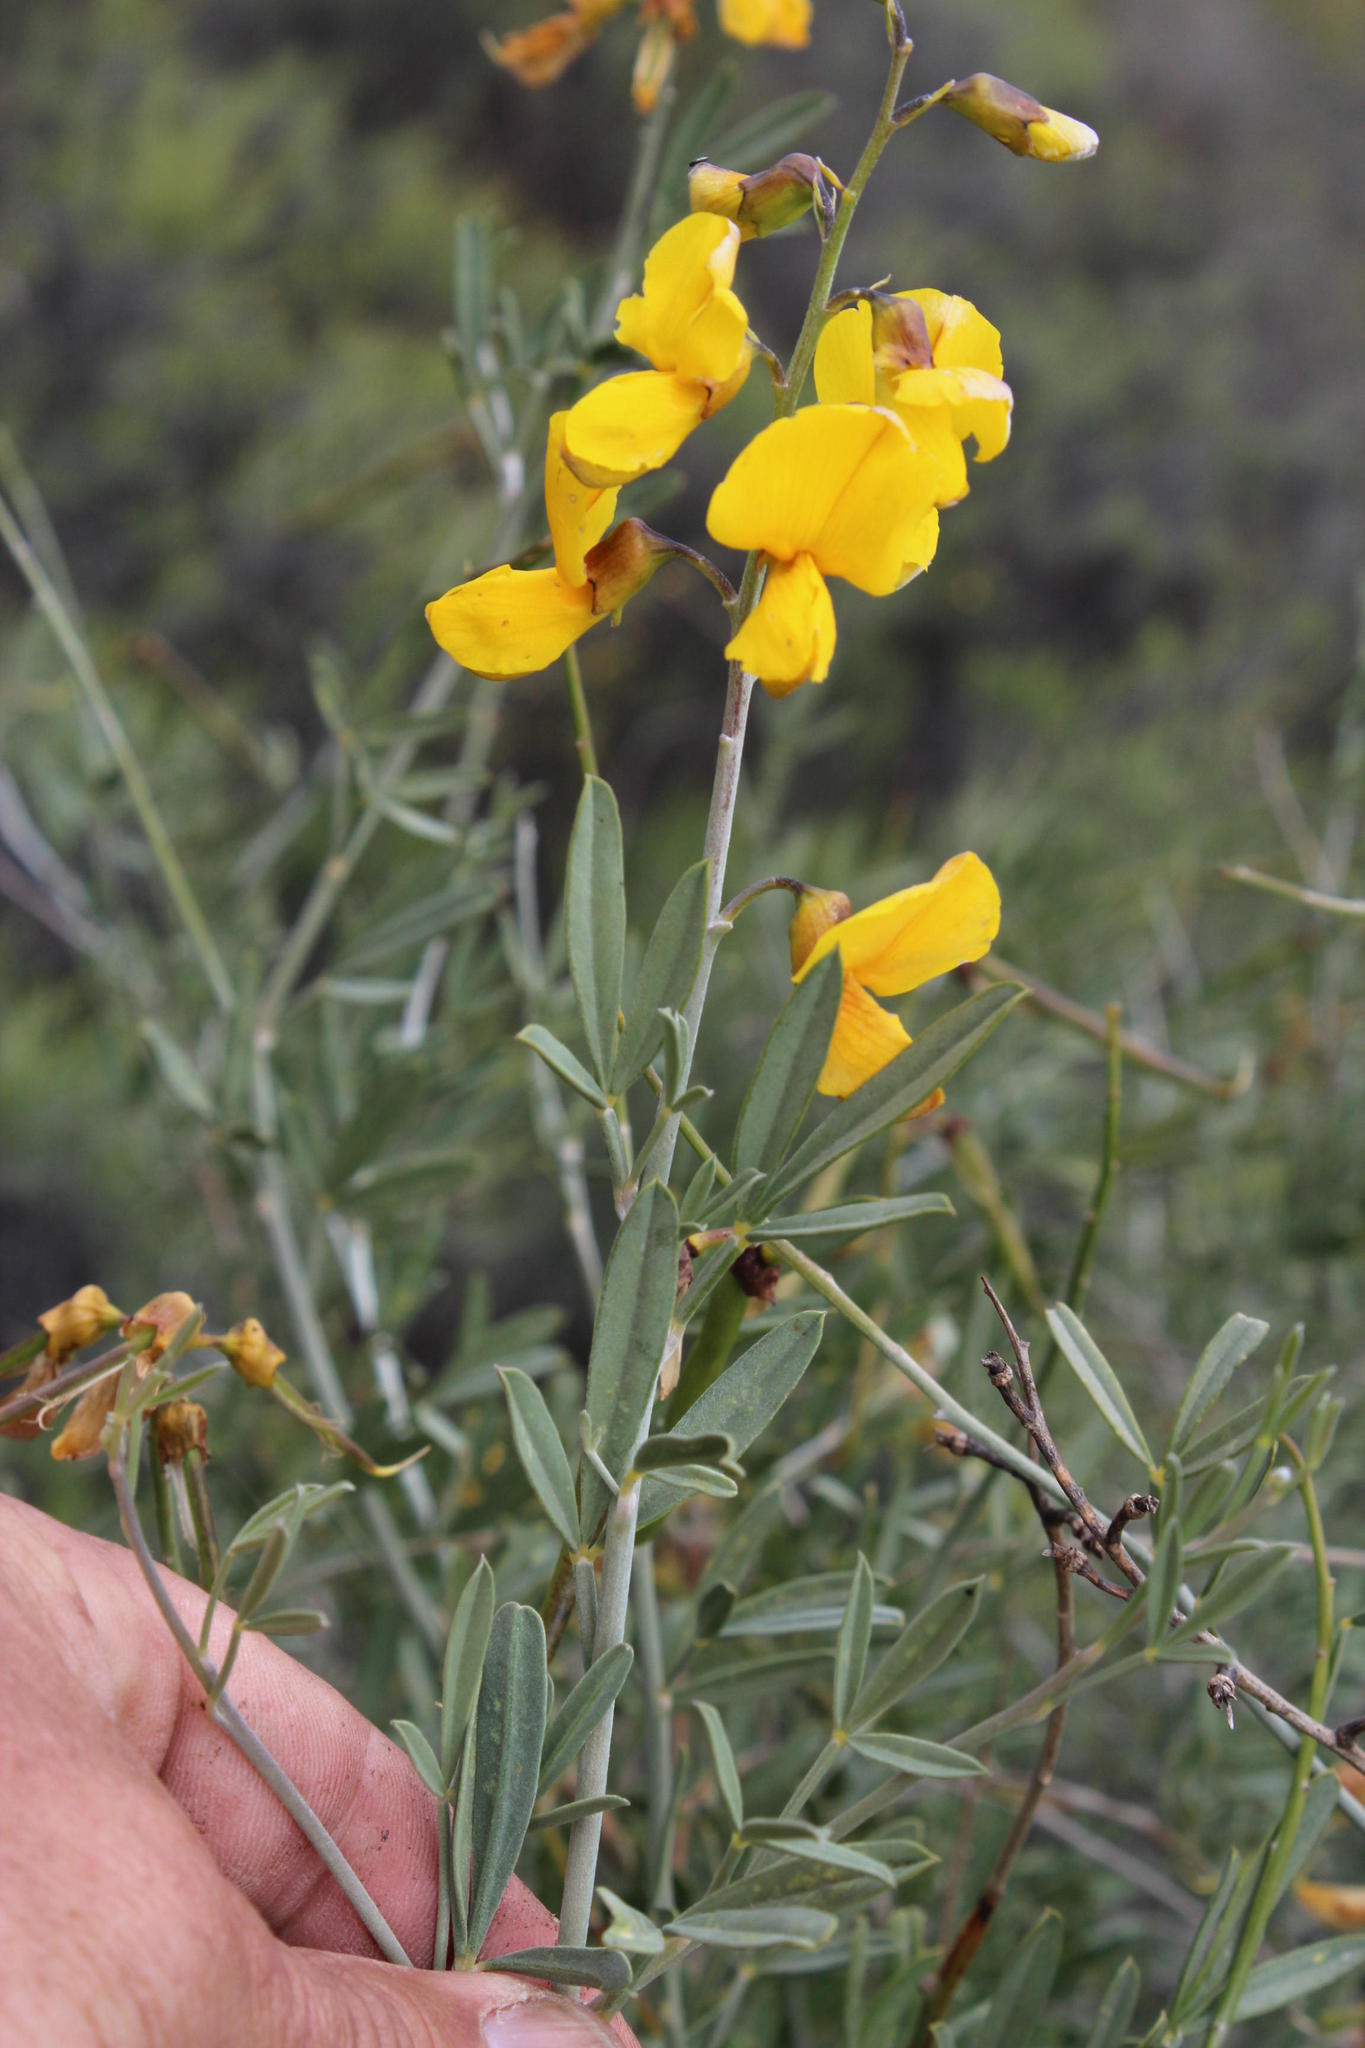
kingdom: Plantae
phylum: Tracheophyta
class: Magnoliopsida
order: Fabales
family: Fabaceae
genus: Calobota
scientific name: Calobota cytisoides
